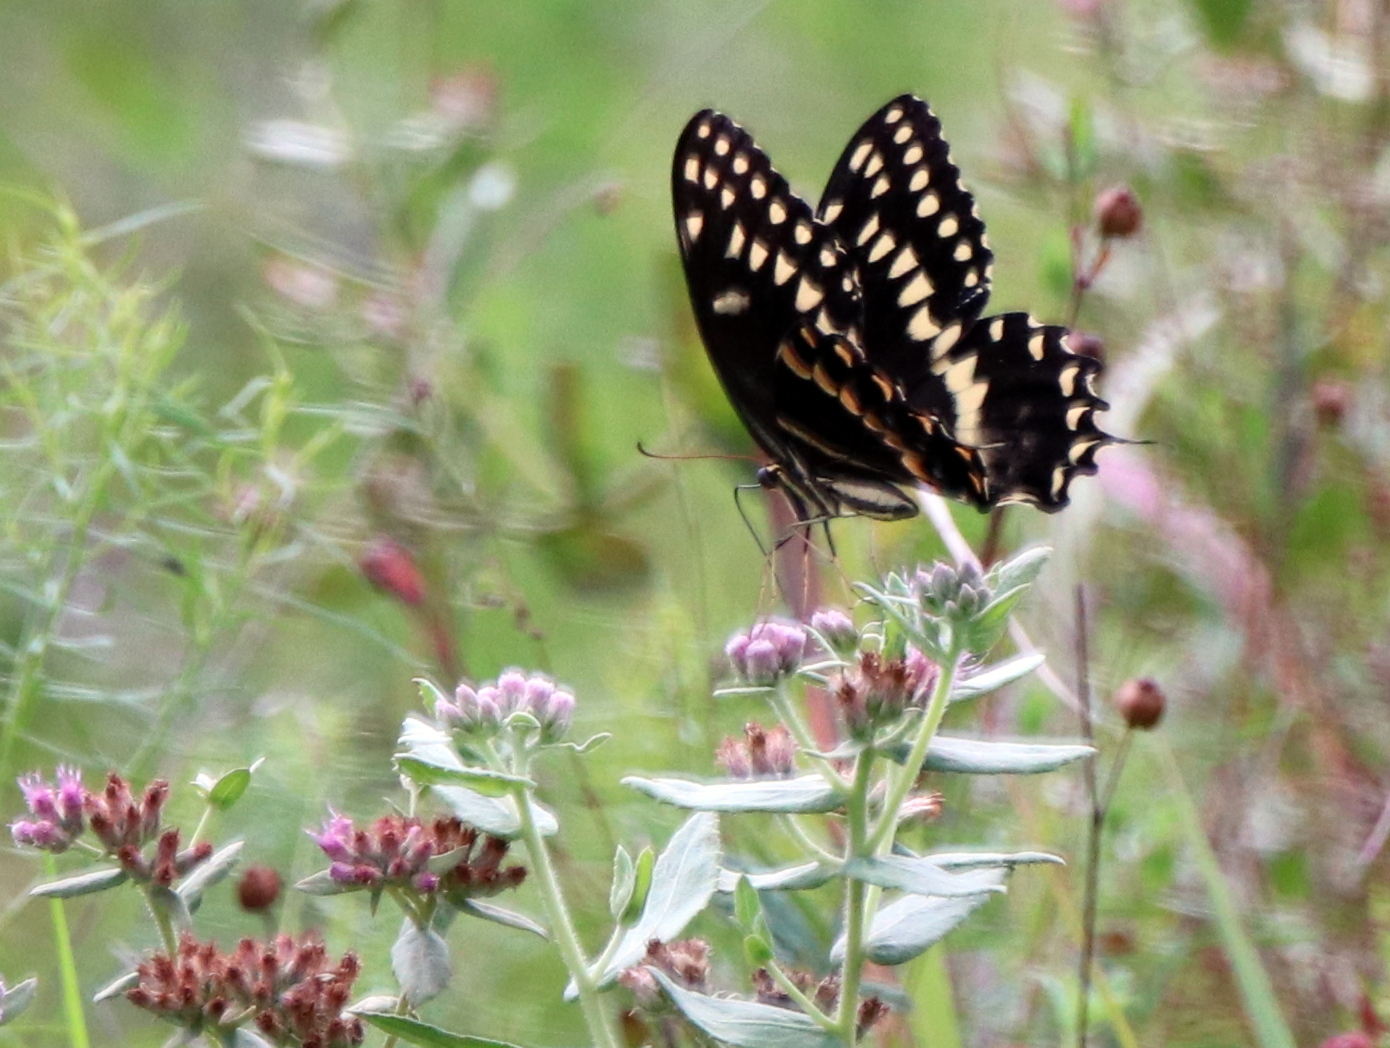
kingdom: Animalia
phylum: Arthropoda
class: Insecta
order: Lepidoptera
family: Papilionidae
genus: Papilio
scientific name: Papilio palamedes
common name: Palamedes swallowtail
